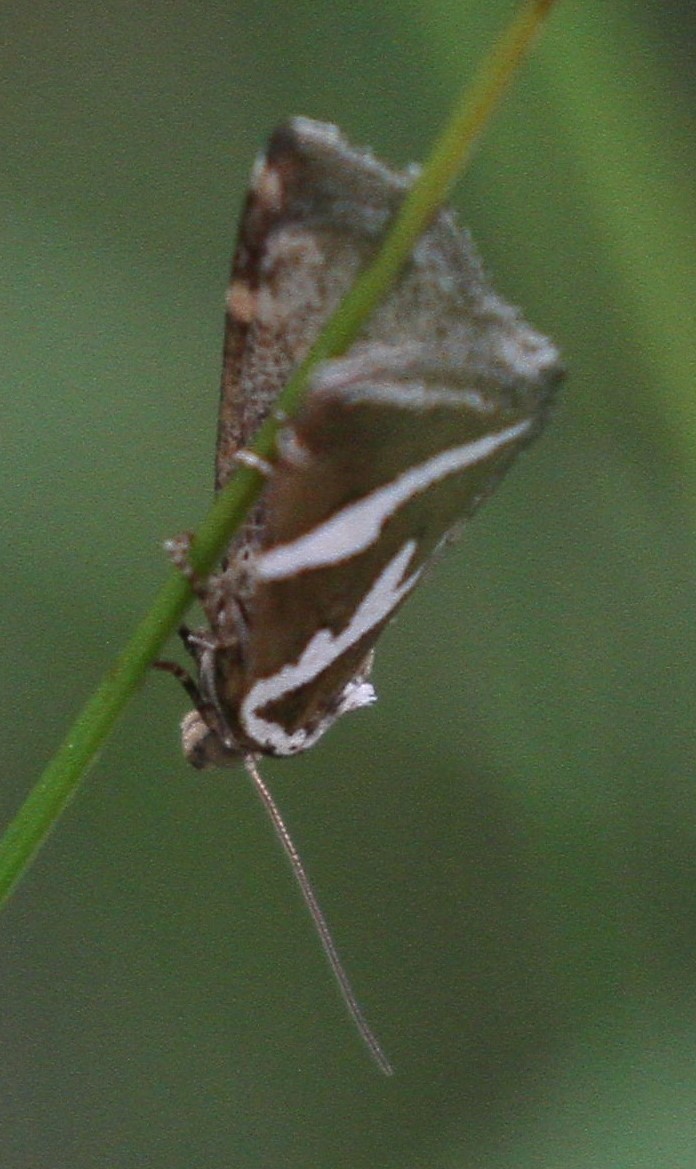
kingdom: Animalia
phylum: Arthropoda
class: Insecta
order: Lepidoptera
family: Noctuidae
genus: Deltote
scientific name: Deltote bankiana
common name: Silver barred
